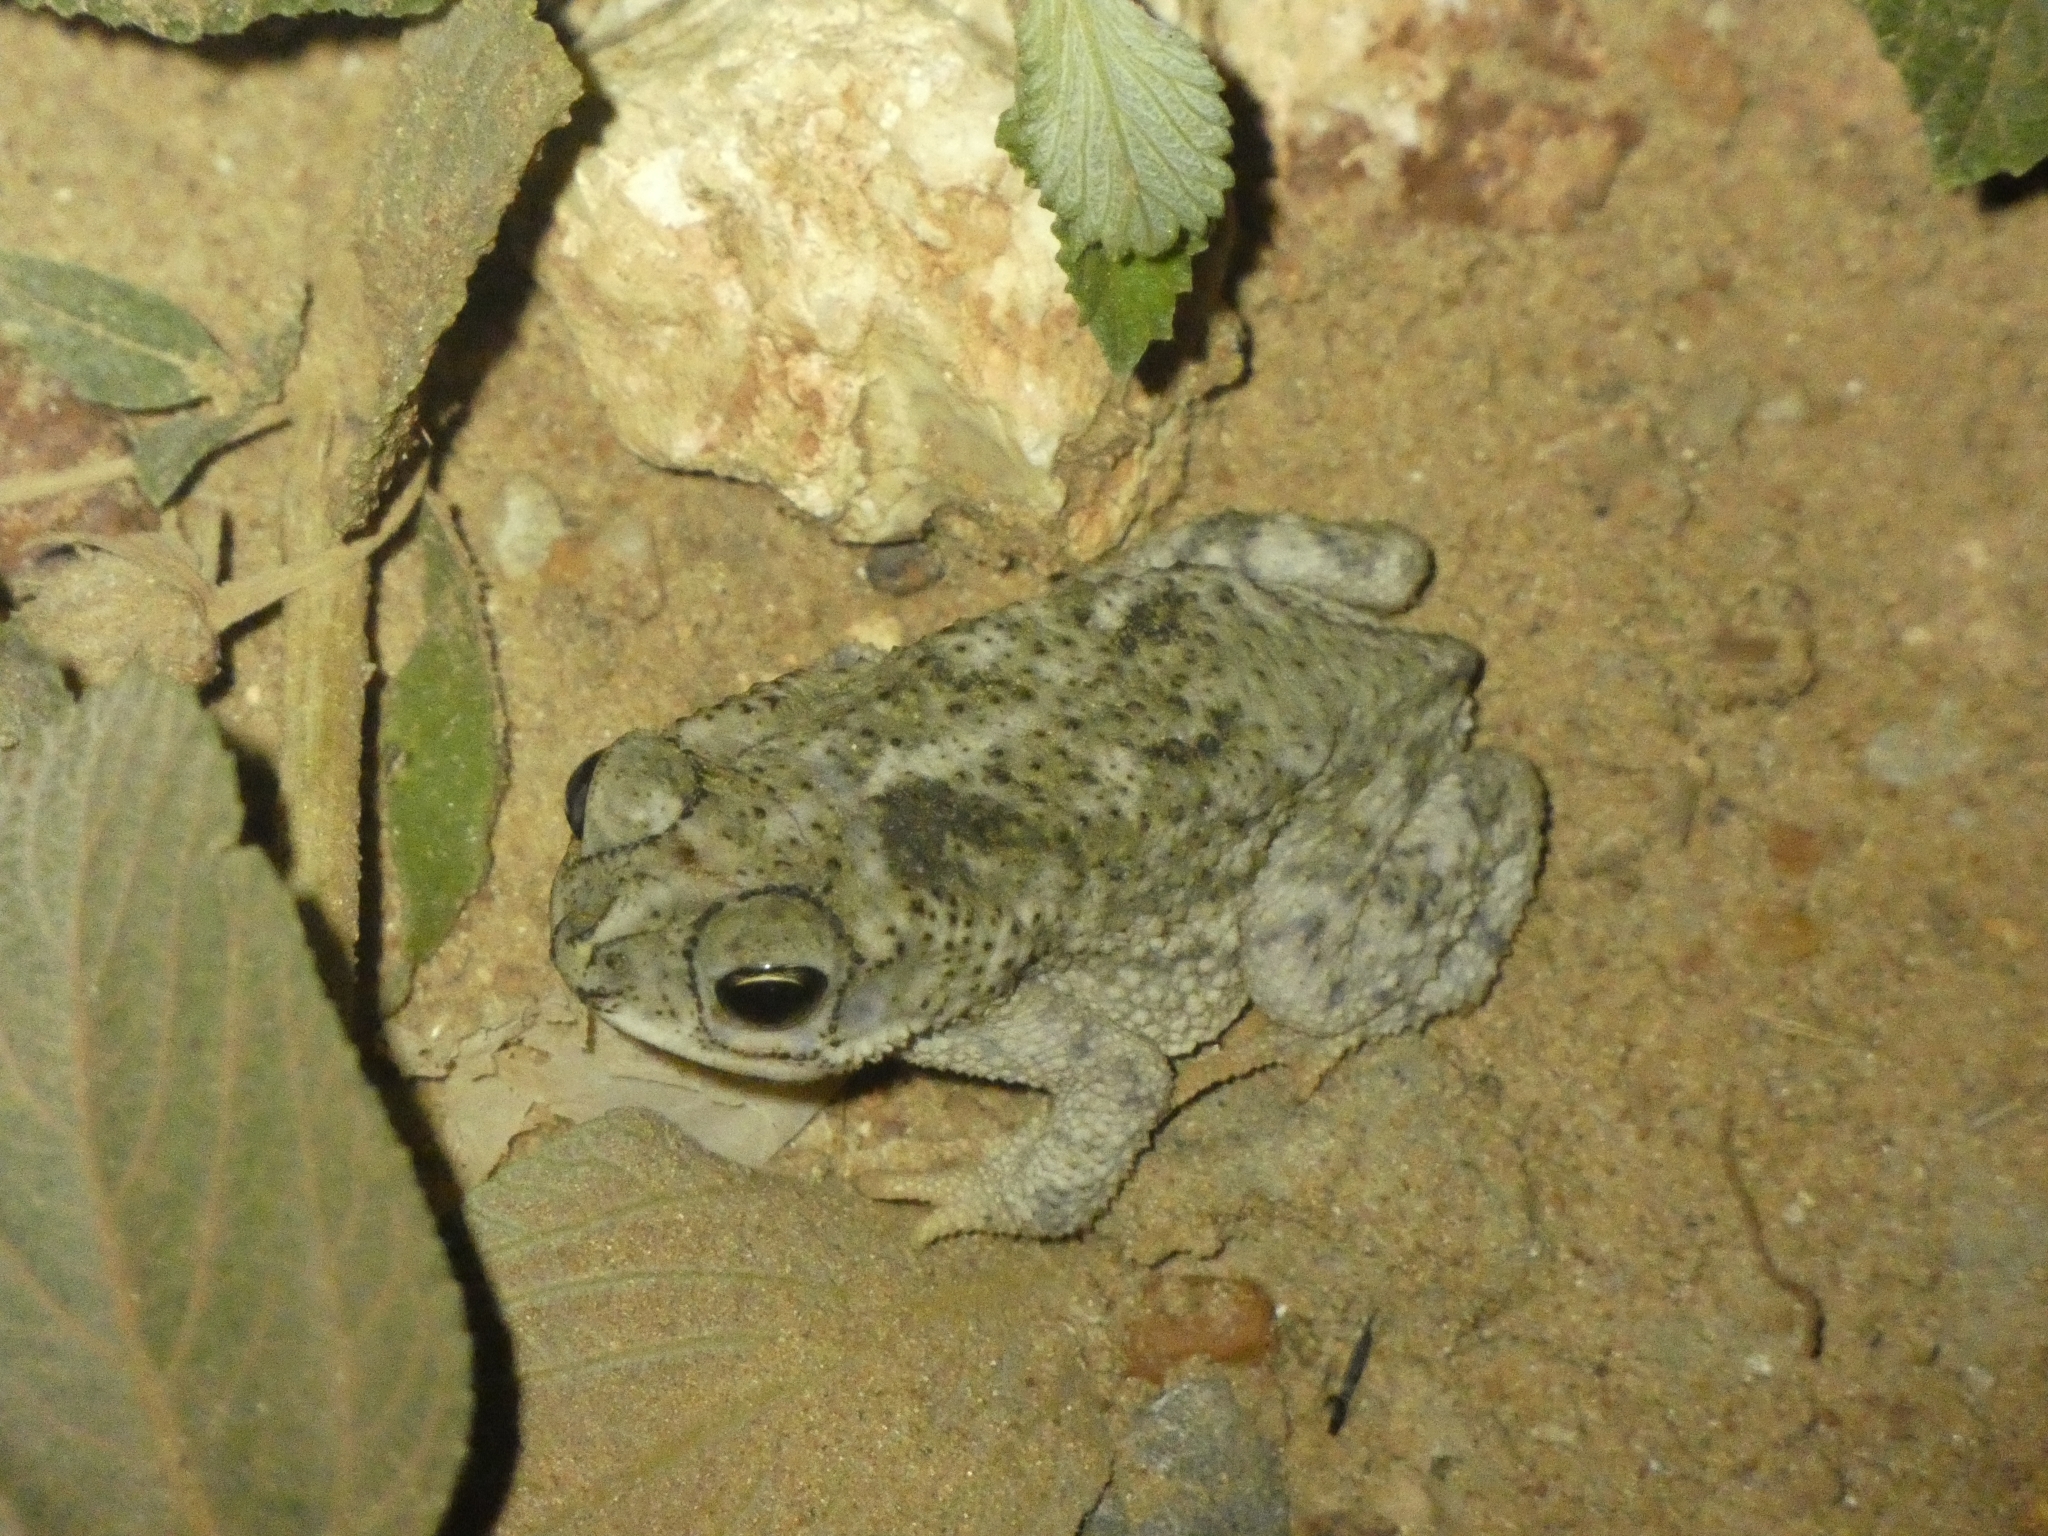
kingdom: Animalia
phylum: Chordata
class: Amphibia
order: Anura
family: Bufonidae
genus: Rhinella
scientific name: Rhinella major
